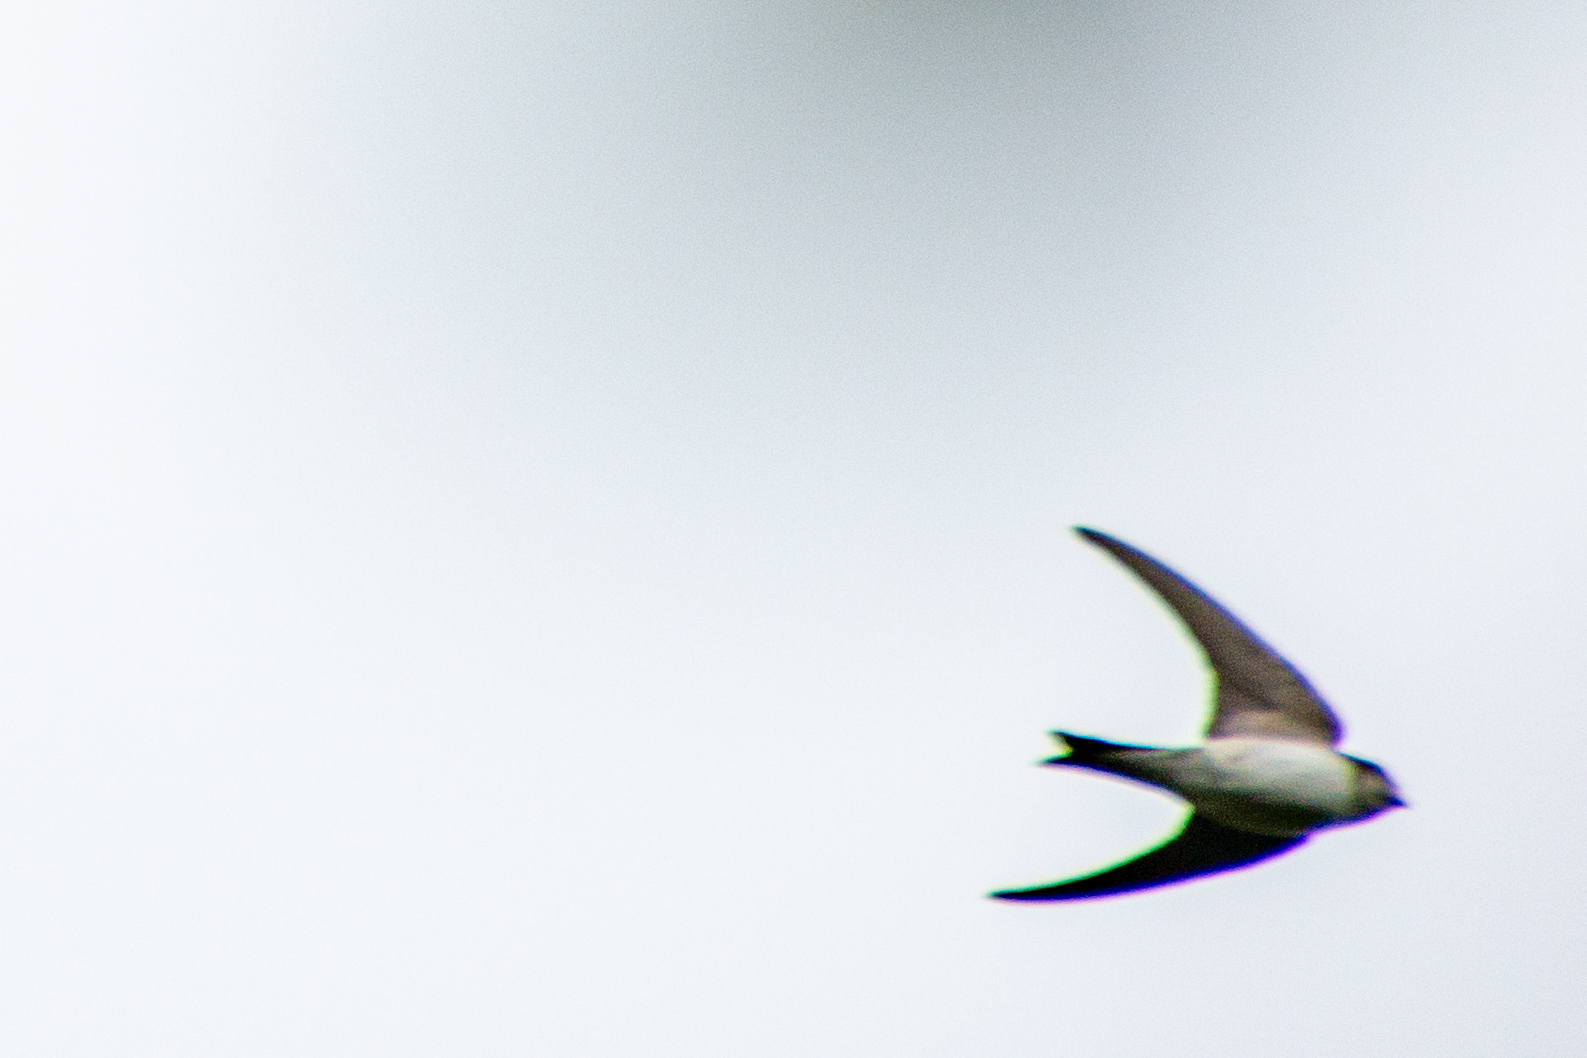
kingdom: Animalia
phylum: Chordata
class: Aves
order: Passeriformes
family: Hirundinidae
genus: Delichon
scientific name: Delichon urbicum
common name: Common house martin
